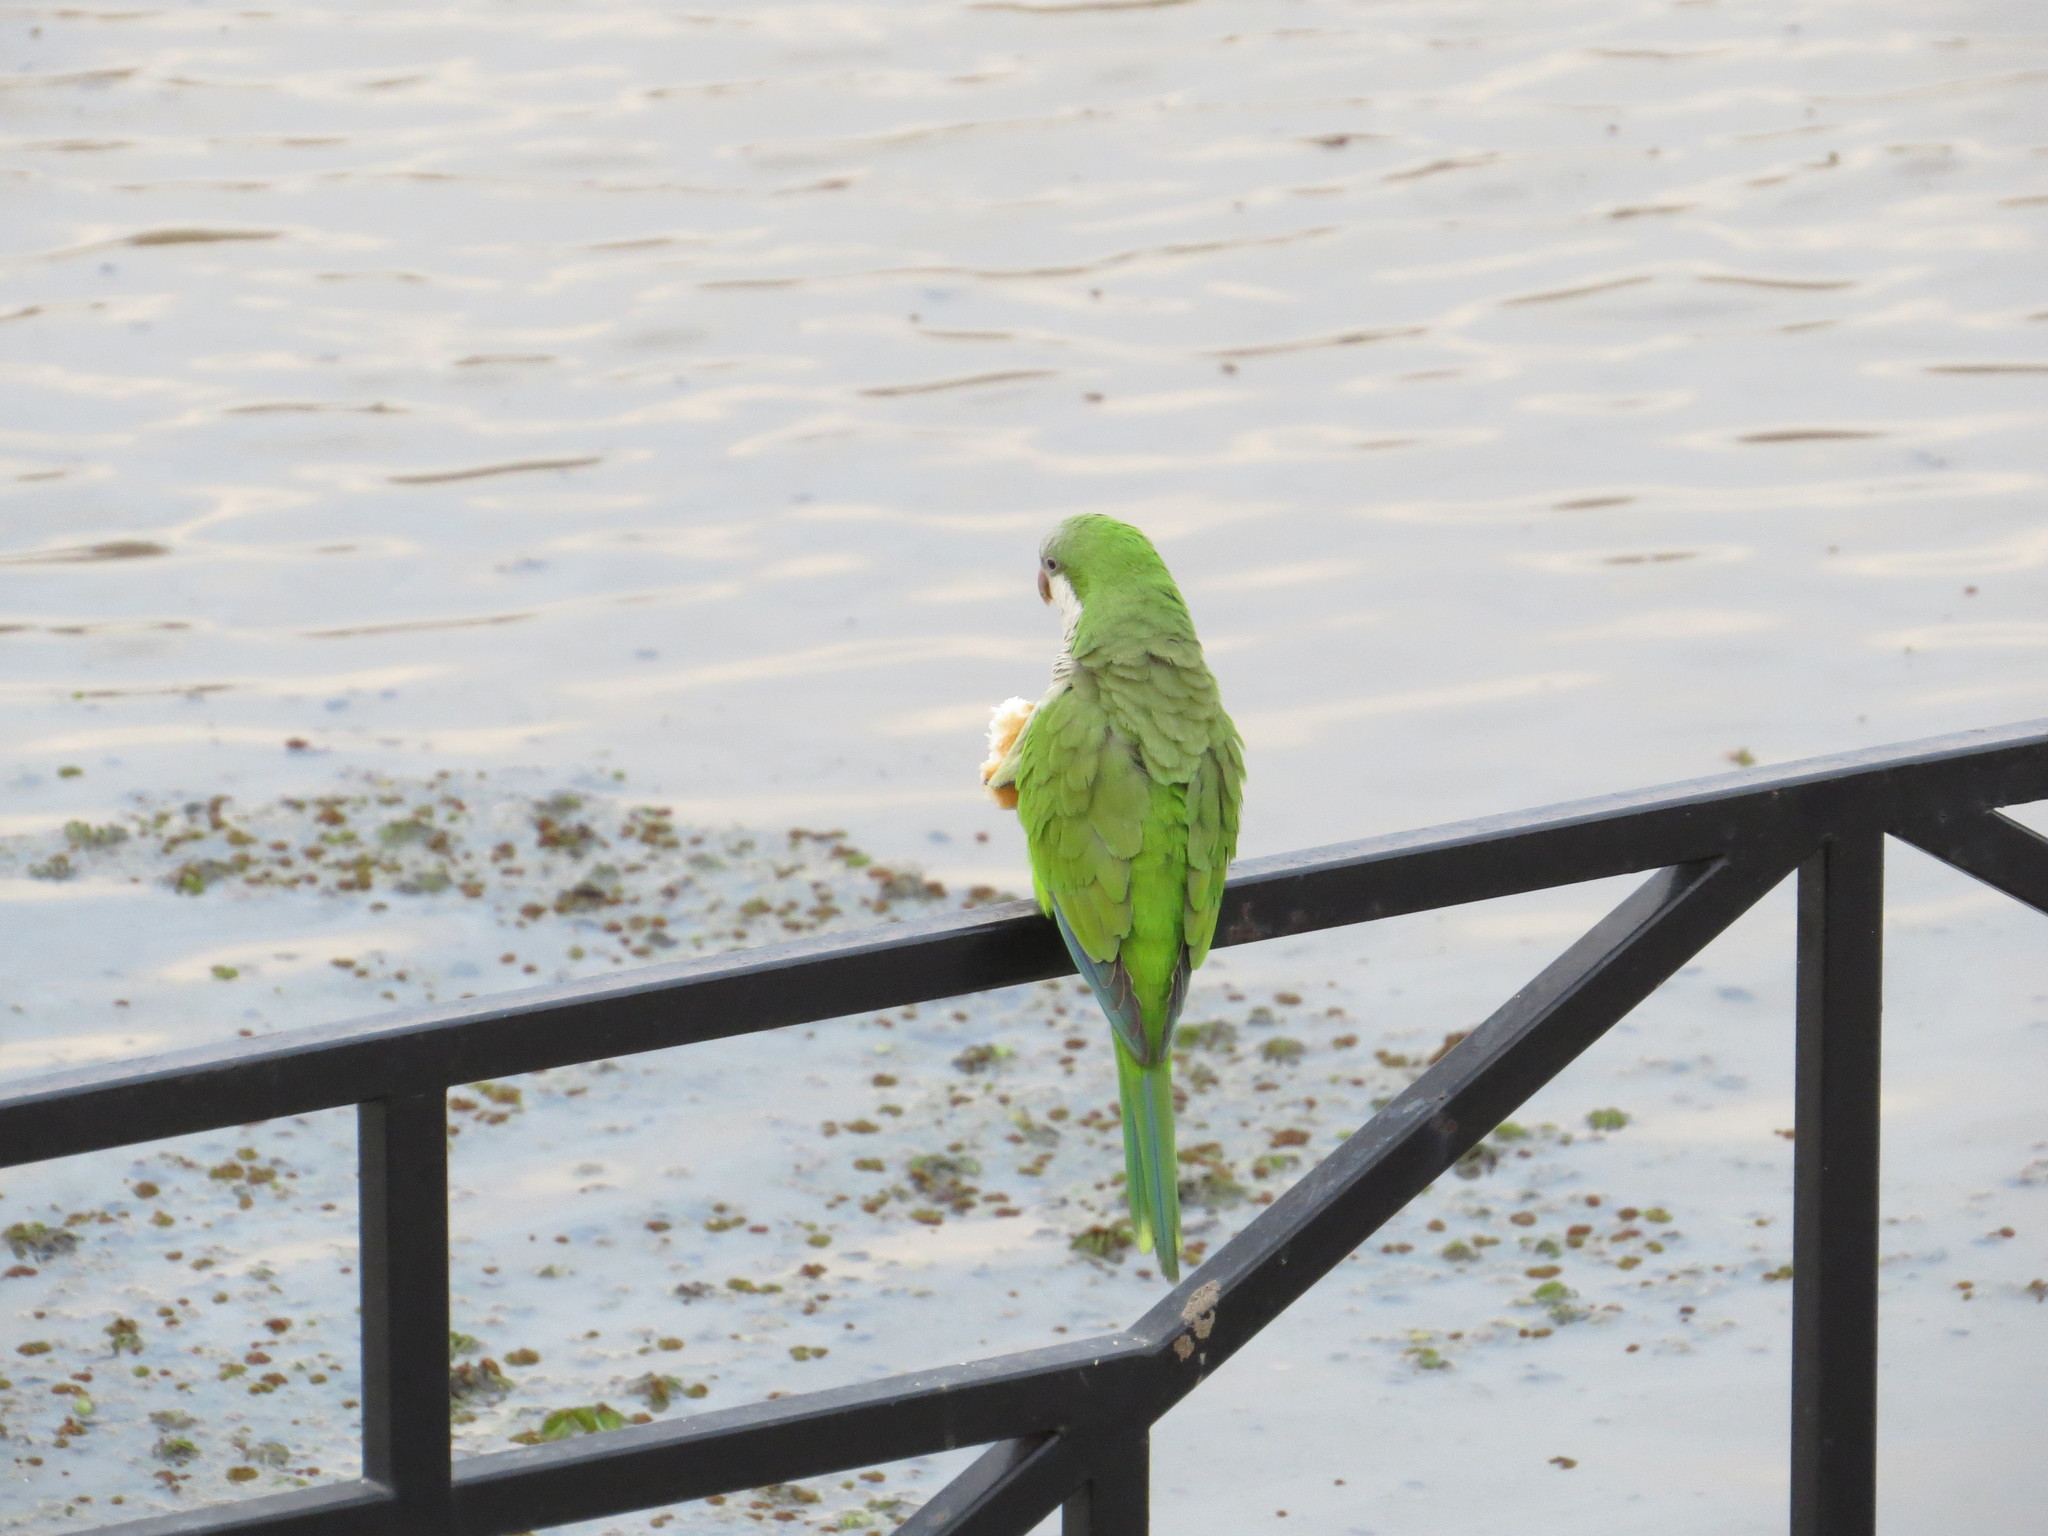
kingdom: Animalia
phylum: Chordata
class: Aves
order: Psittaciformes
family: Psittacidae
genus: Myiopsitta
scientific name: Myiopsitta monachus
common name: Monk parakeet
